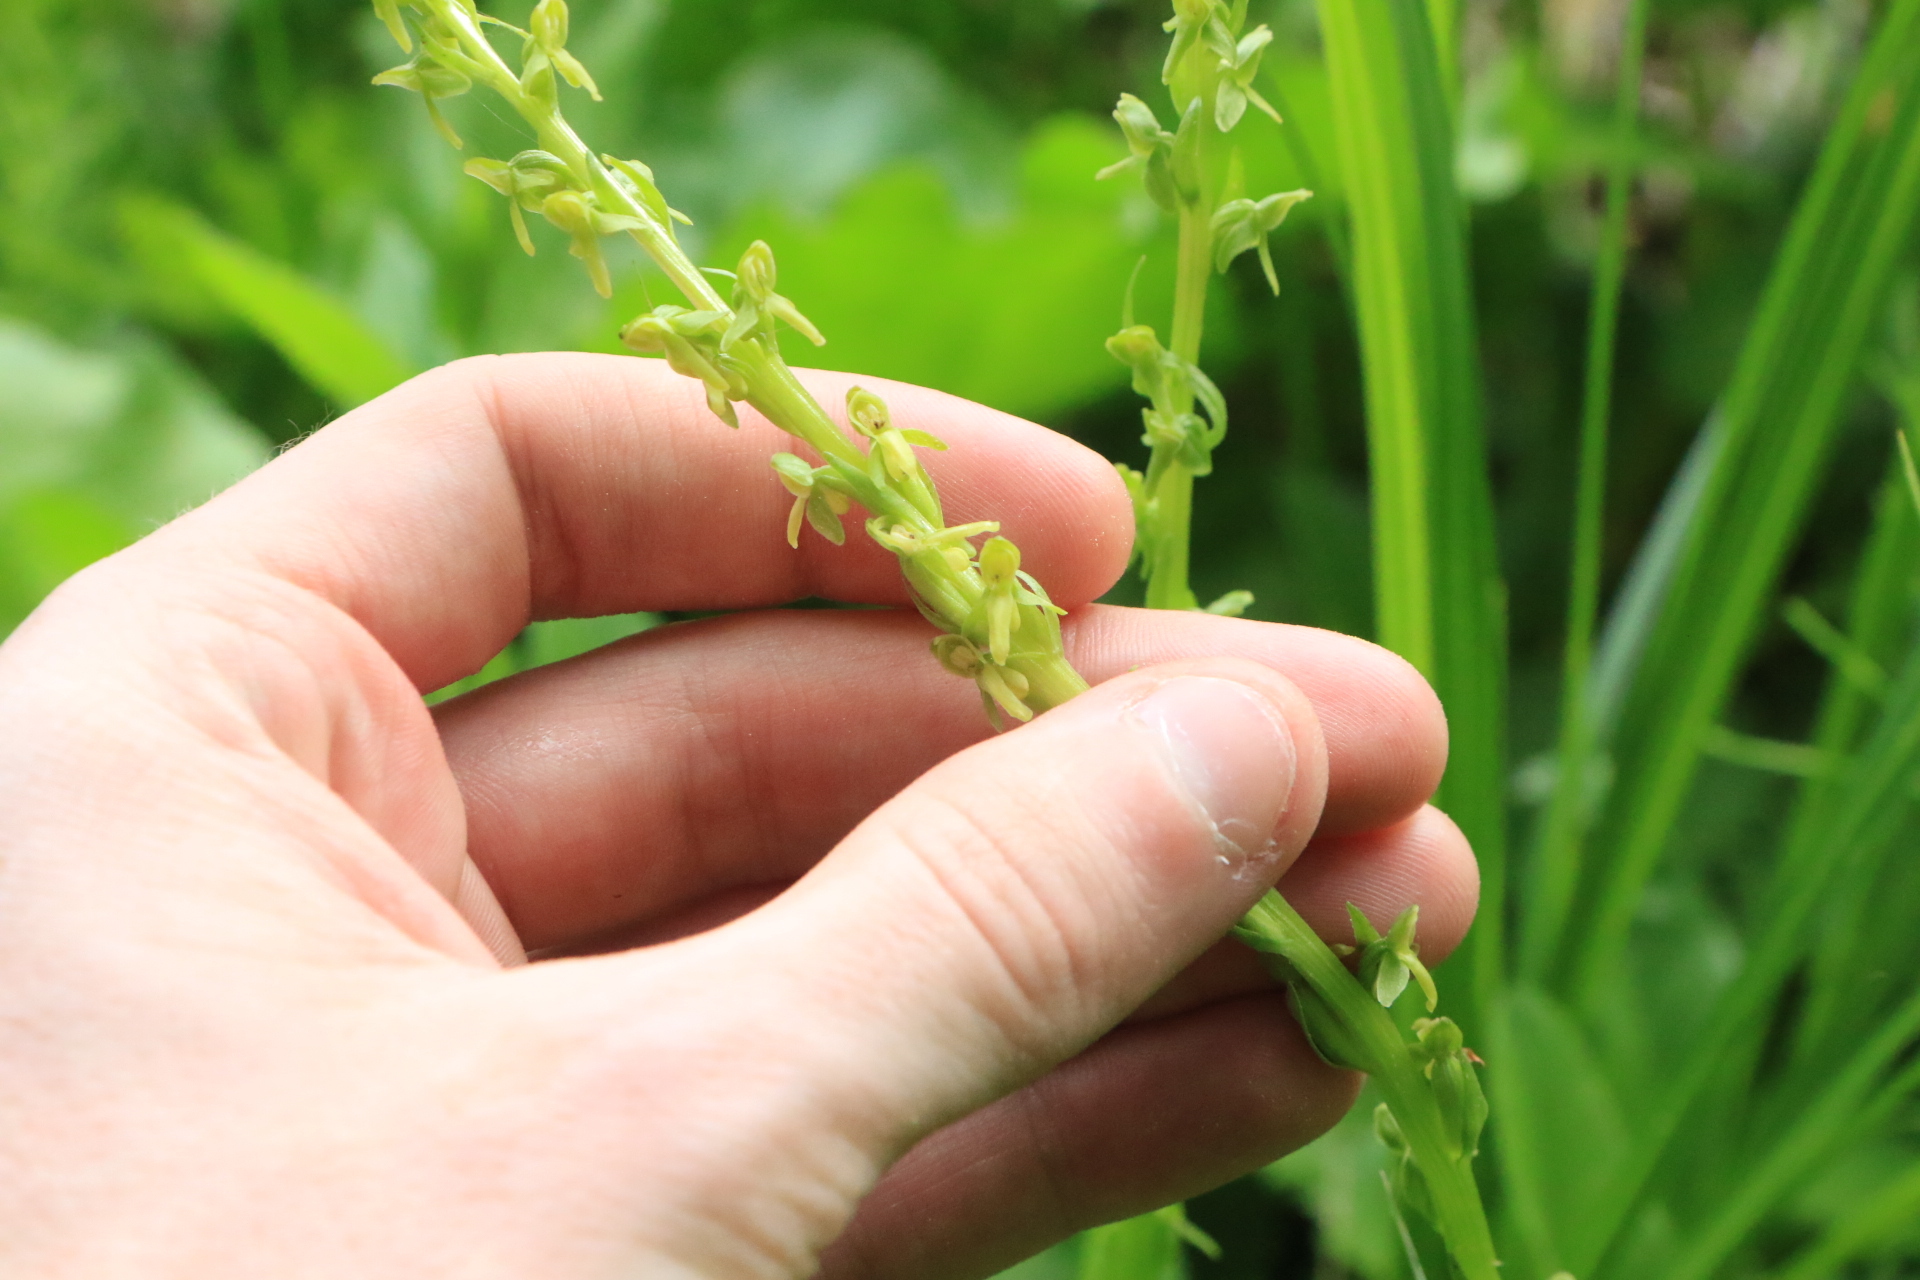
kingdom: Plantae
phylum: Tracheophyta
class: Liliopsida
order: Asparagales
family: Orchidaceae
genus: Platanthera
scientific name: Platanthera stricta
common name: Slender bog orchid
